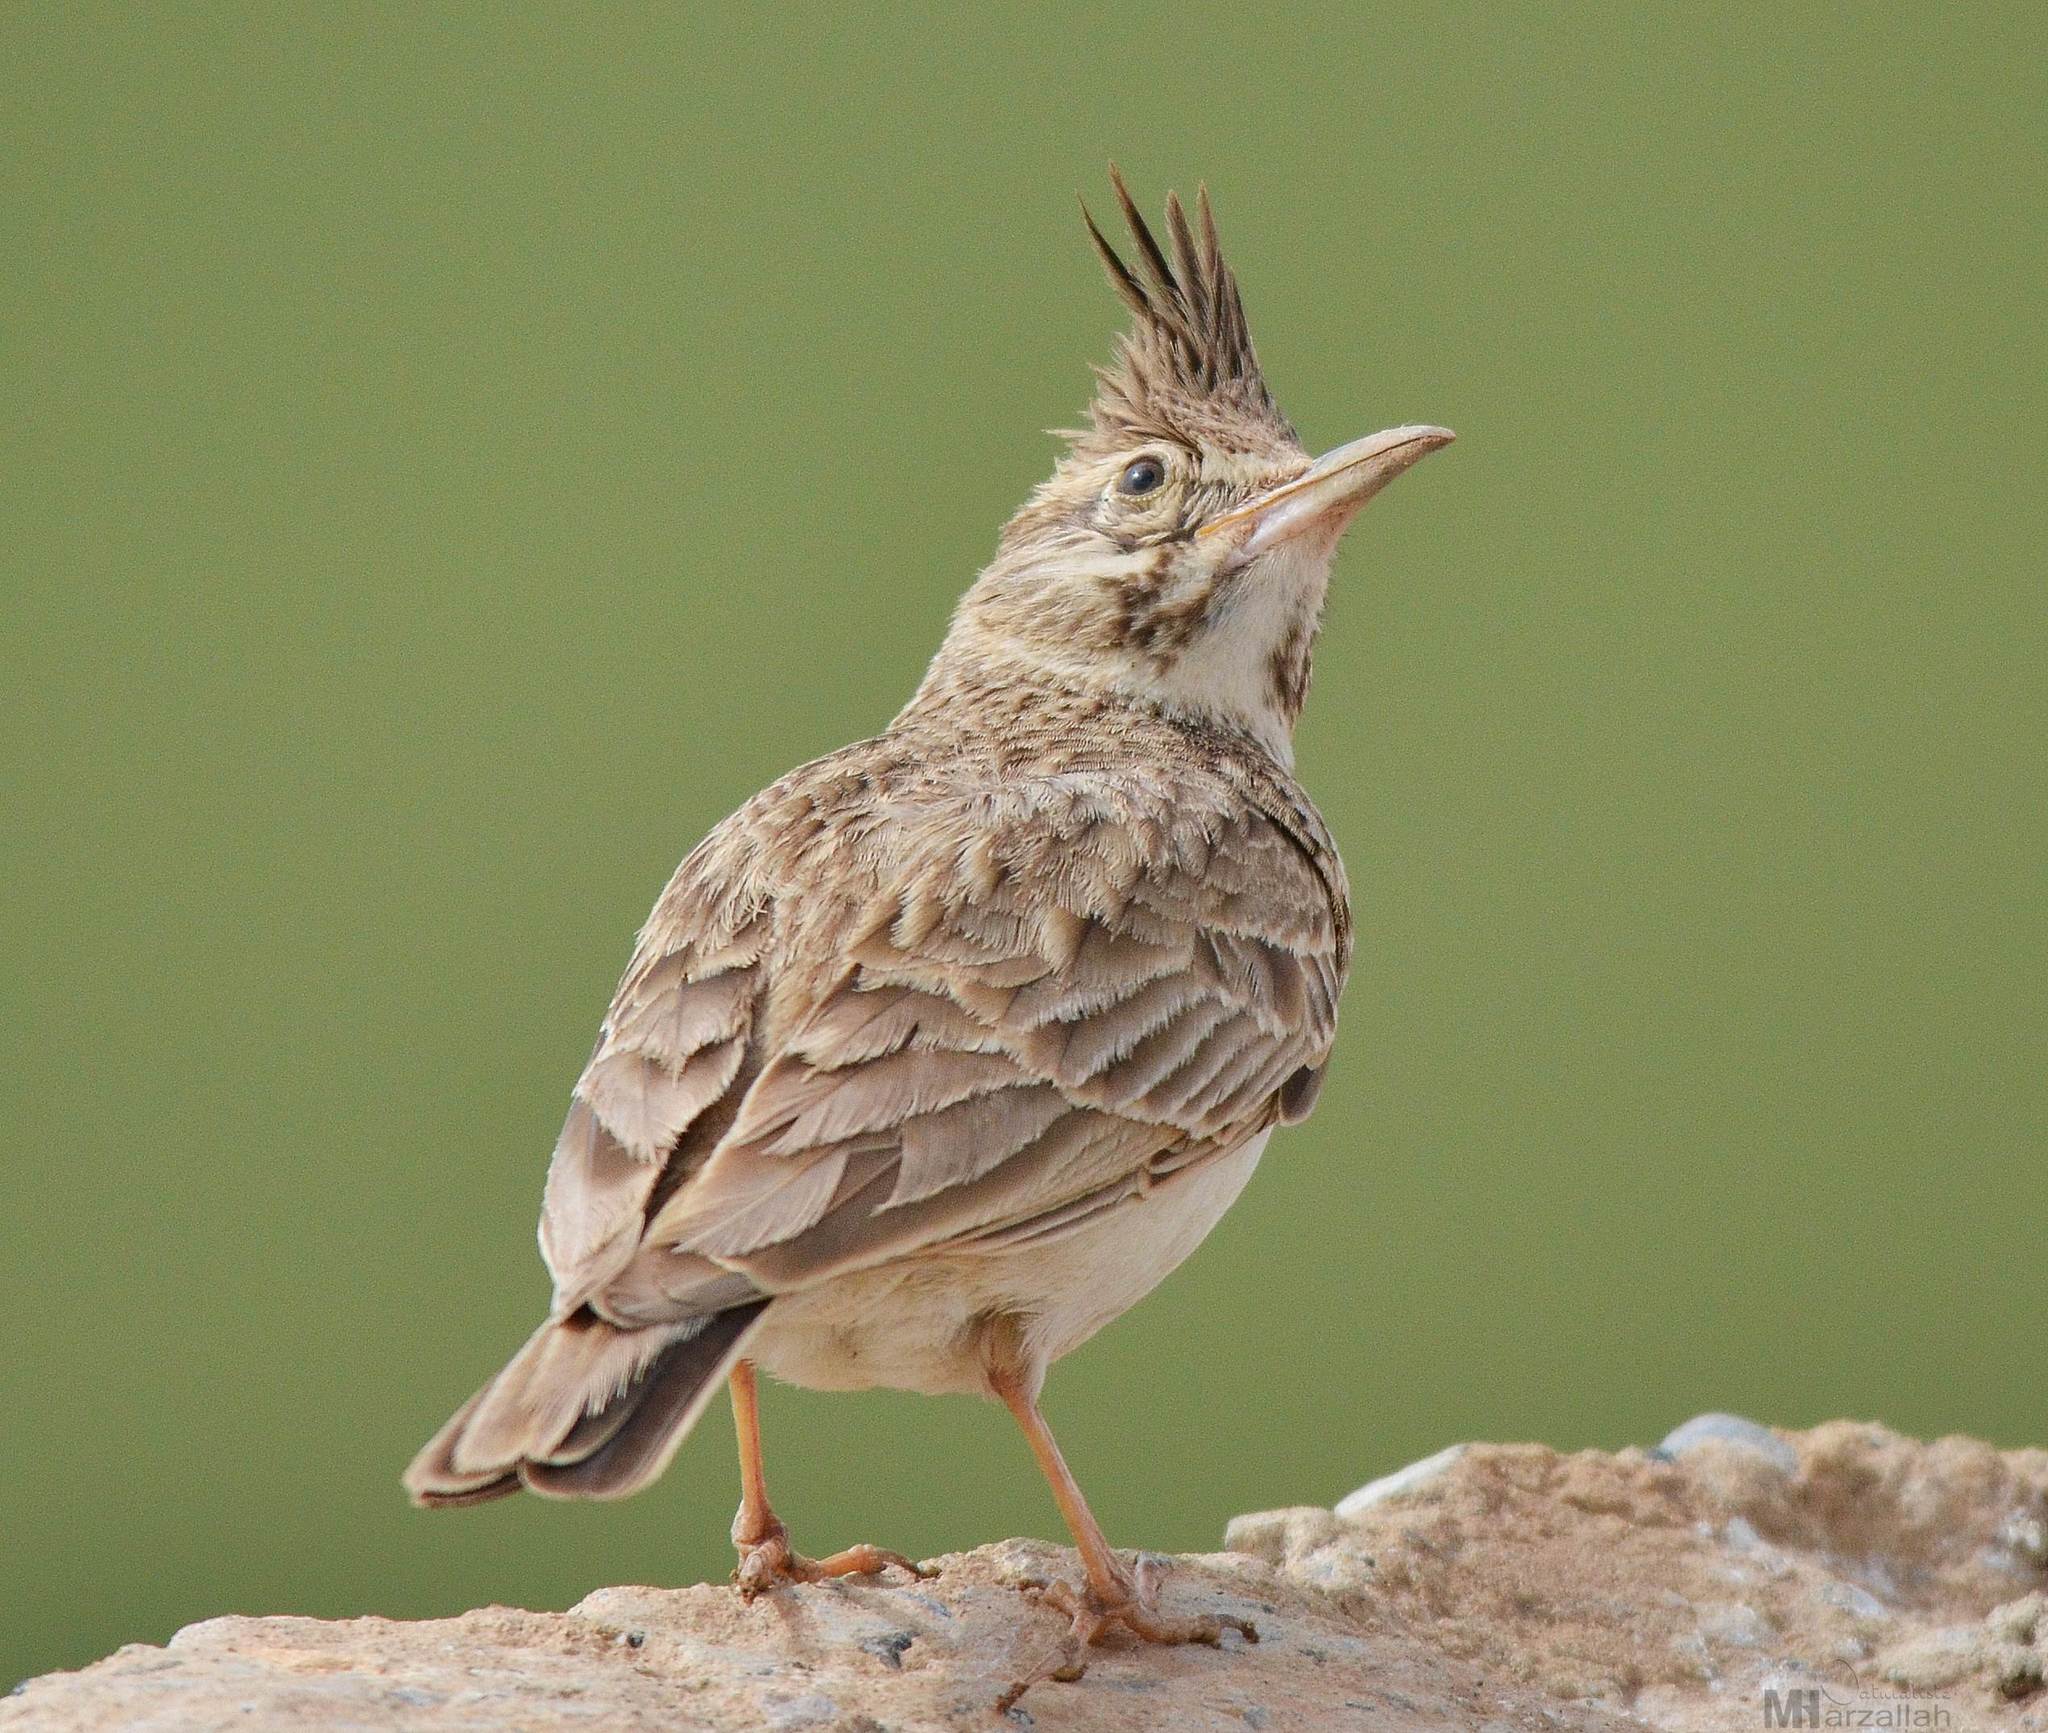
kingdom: Animalia
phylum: Chordata
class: Aves
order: Passeriformes
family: Alaudidae
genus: Galerida
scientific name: Galerida cristata
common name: Crested lark
